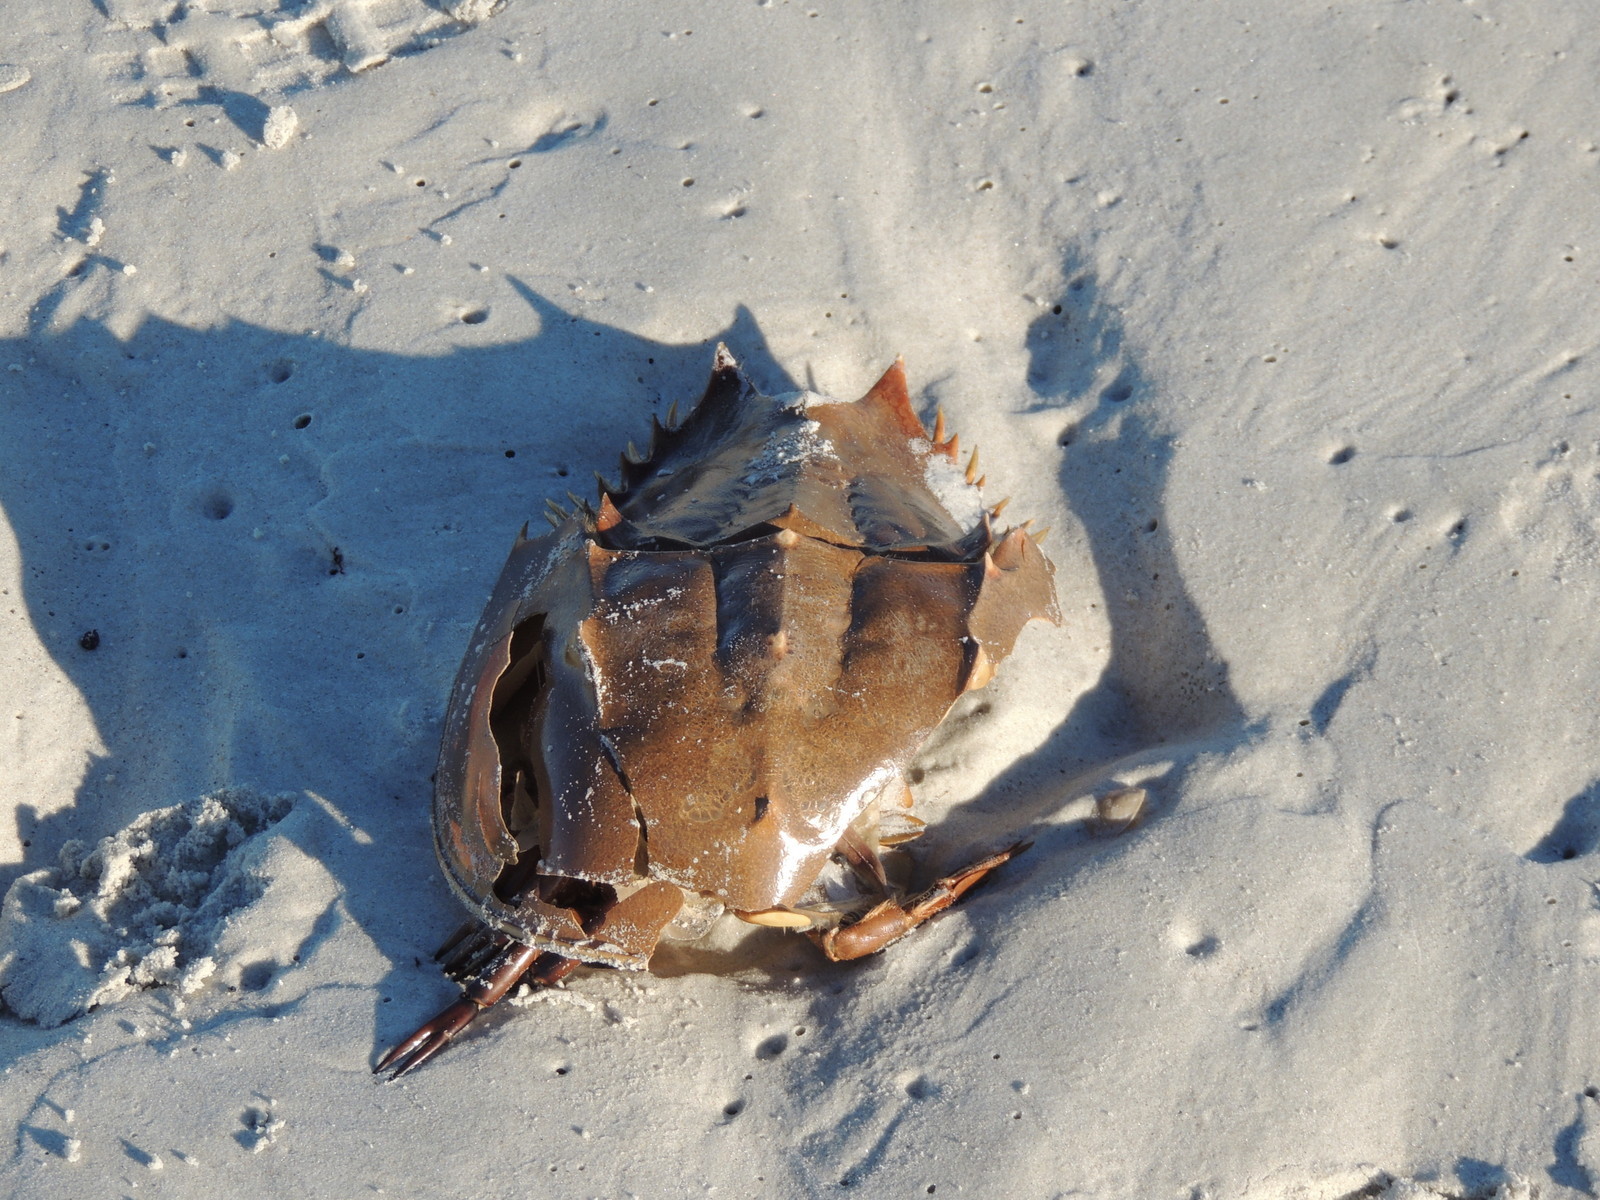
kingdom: Animalia
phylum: Arthropoda
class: Merostomata
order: Xiphosurida
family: Limulidae
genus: Limulus
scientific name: Limulus polyphemus
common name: Horseshoe crab
